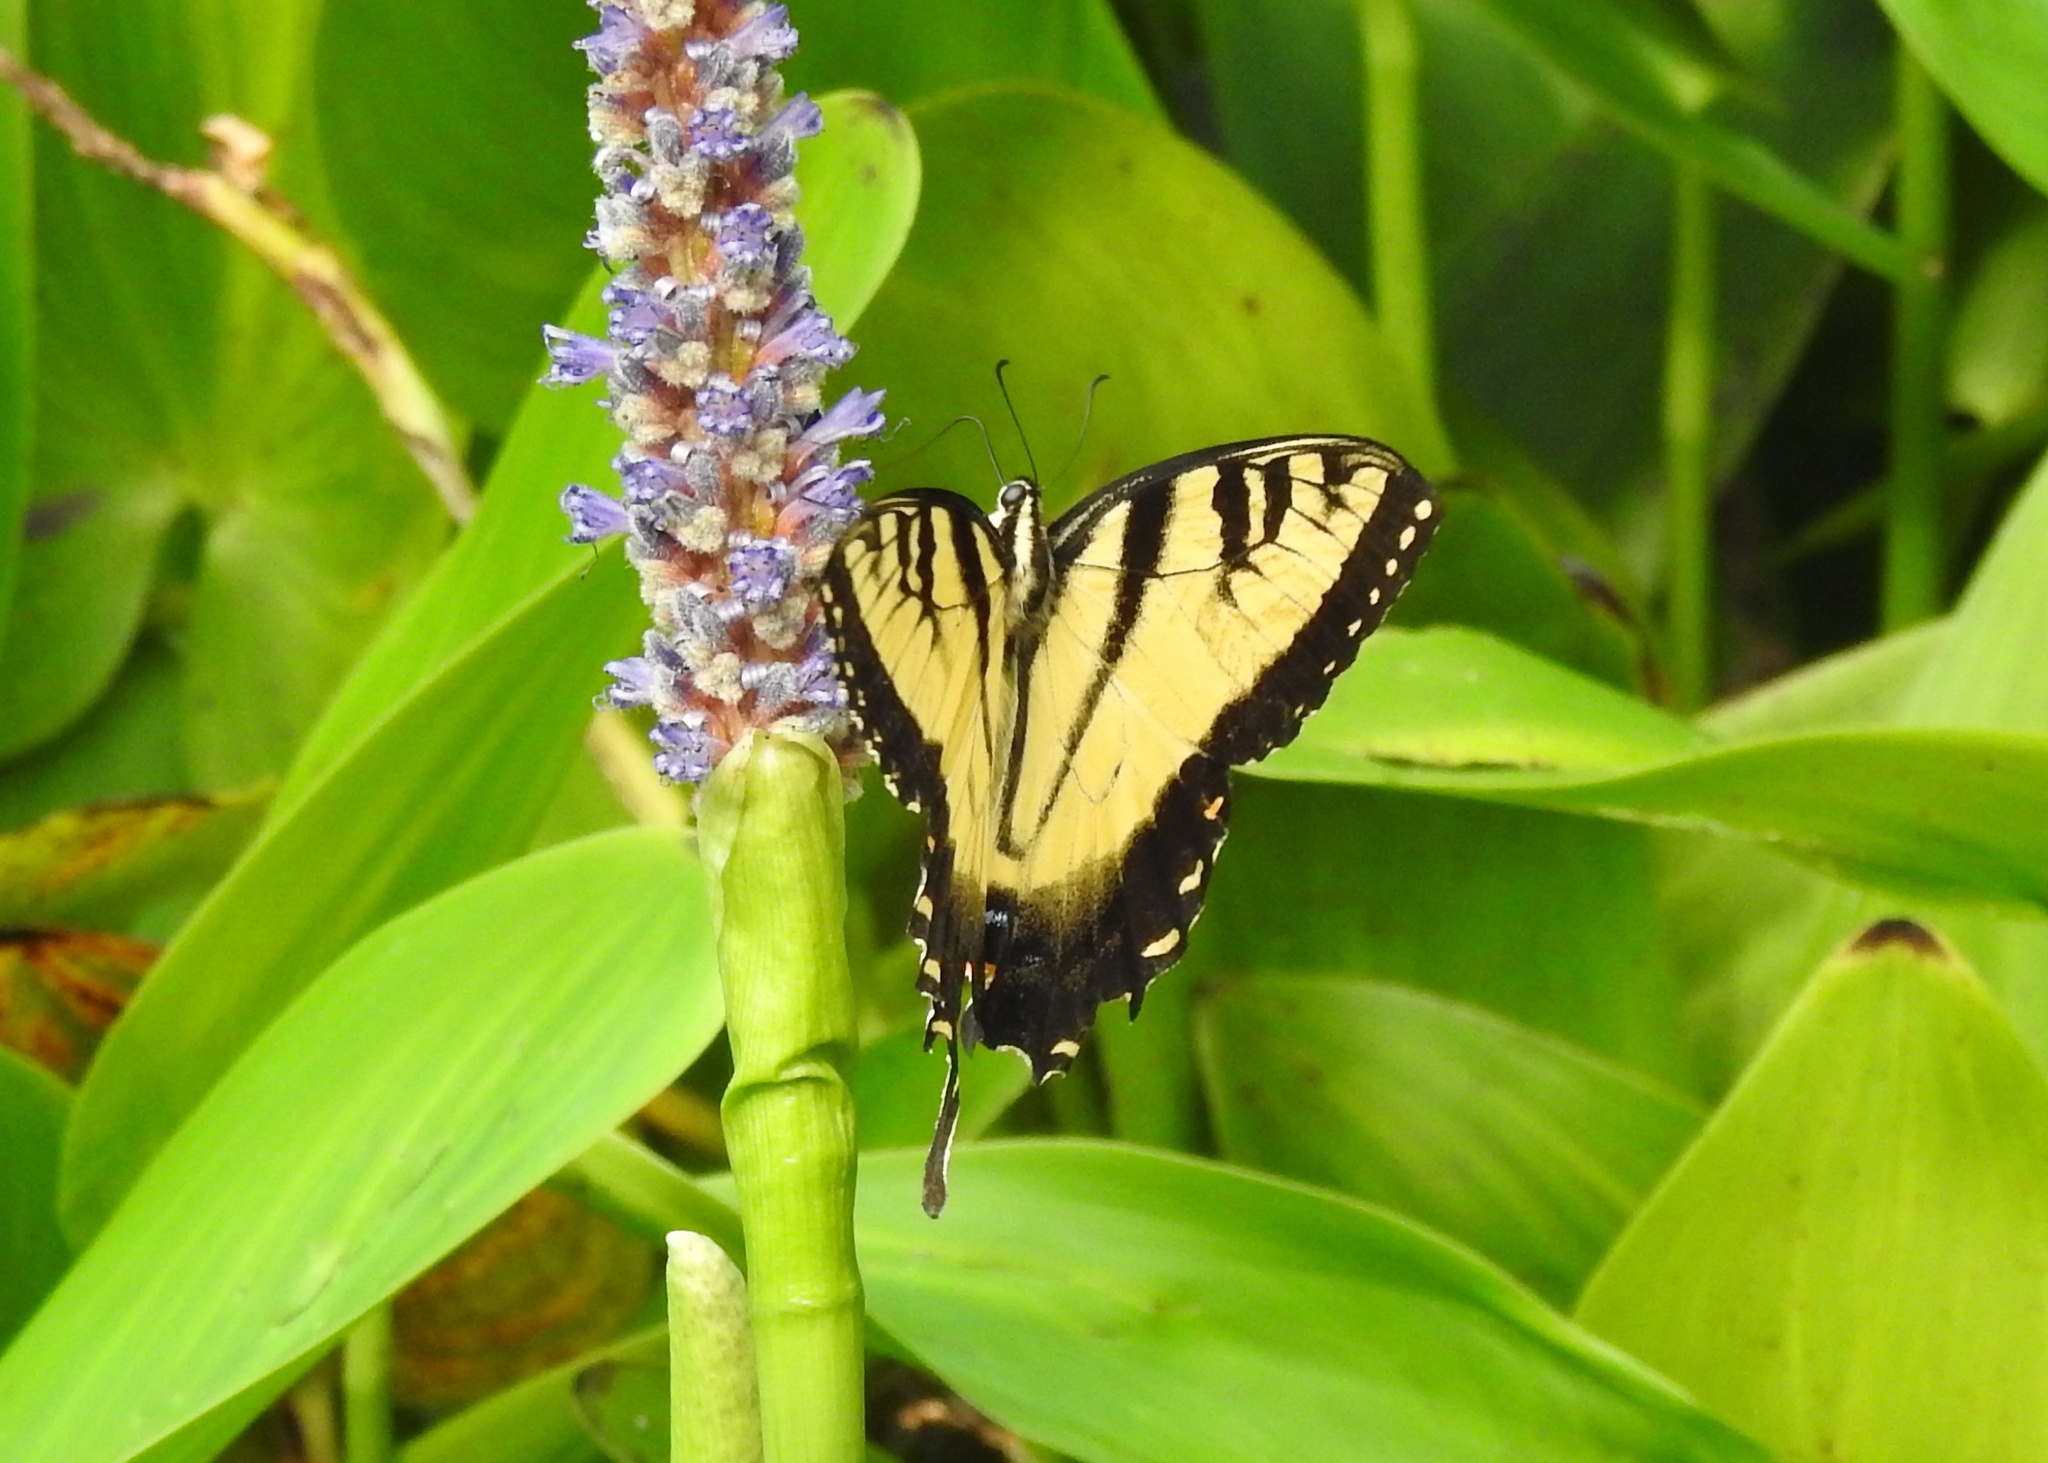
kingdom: Animalia
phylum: Arthropoda
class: Insecta
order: Lepidoptera
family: Papilionidae
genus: Papilio
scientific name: Papilio glaucus
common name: Tiger swallowtail
